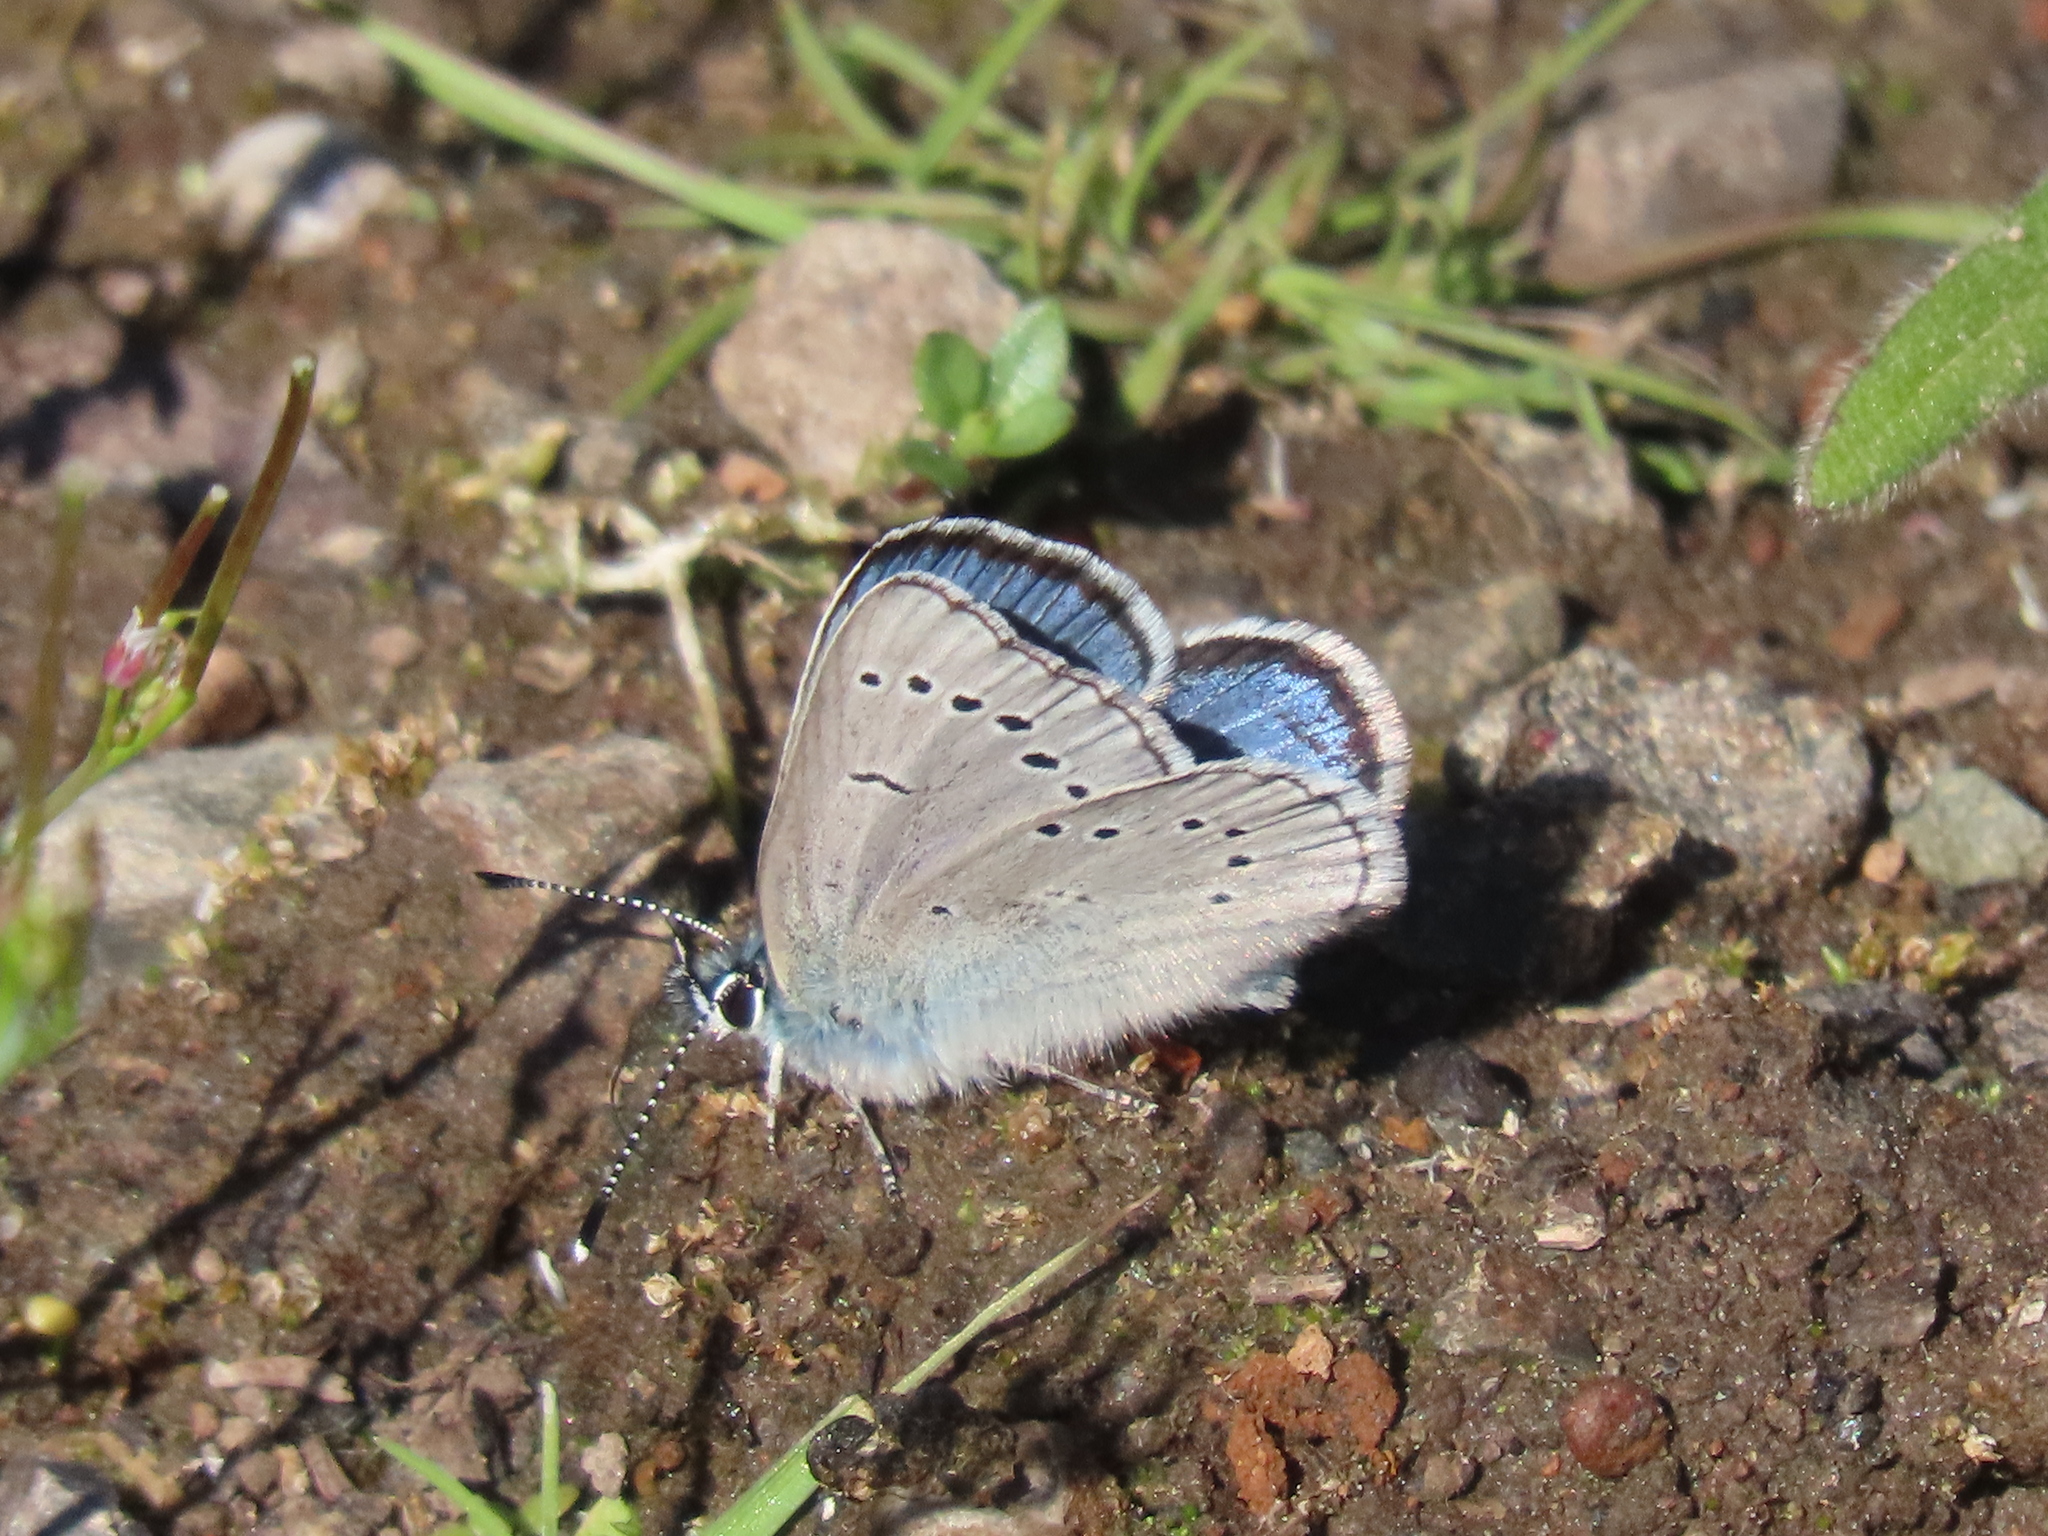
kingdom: Animalia
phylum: Arthropoda
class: Insecta
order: Lepidoptera
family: Lycaenidae
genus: Glaucopsyche
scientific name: Glaucopsyche lygdamus
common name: Silvery blue
